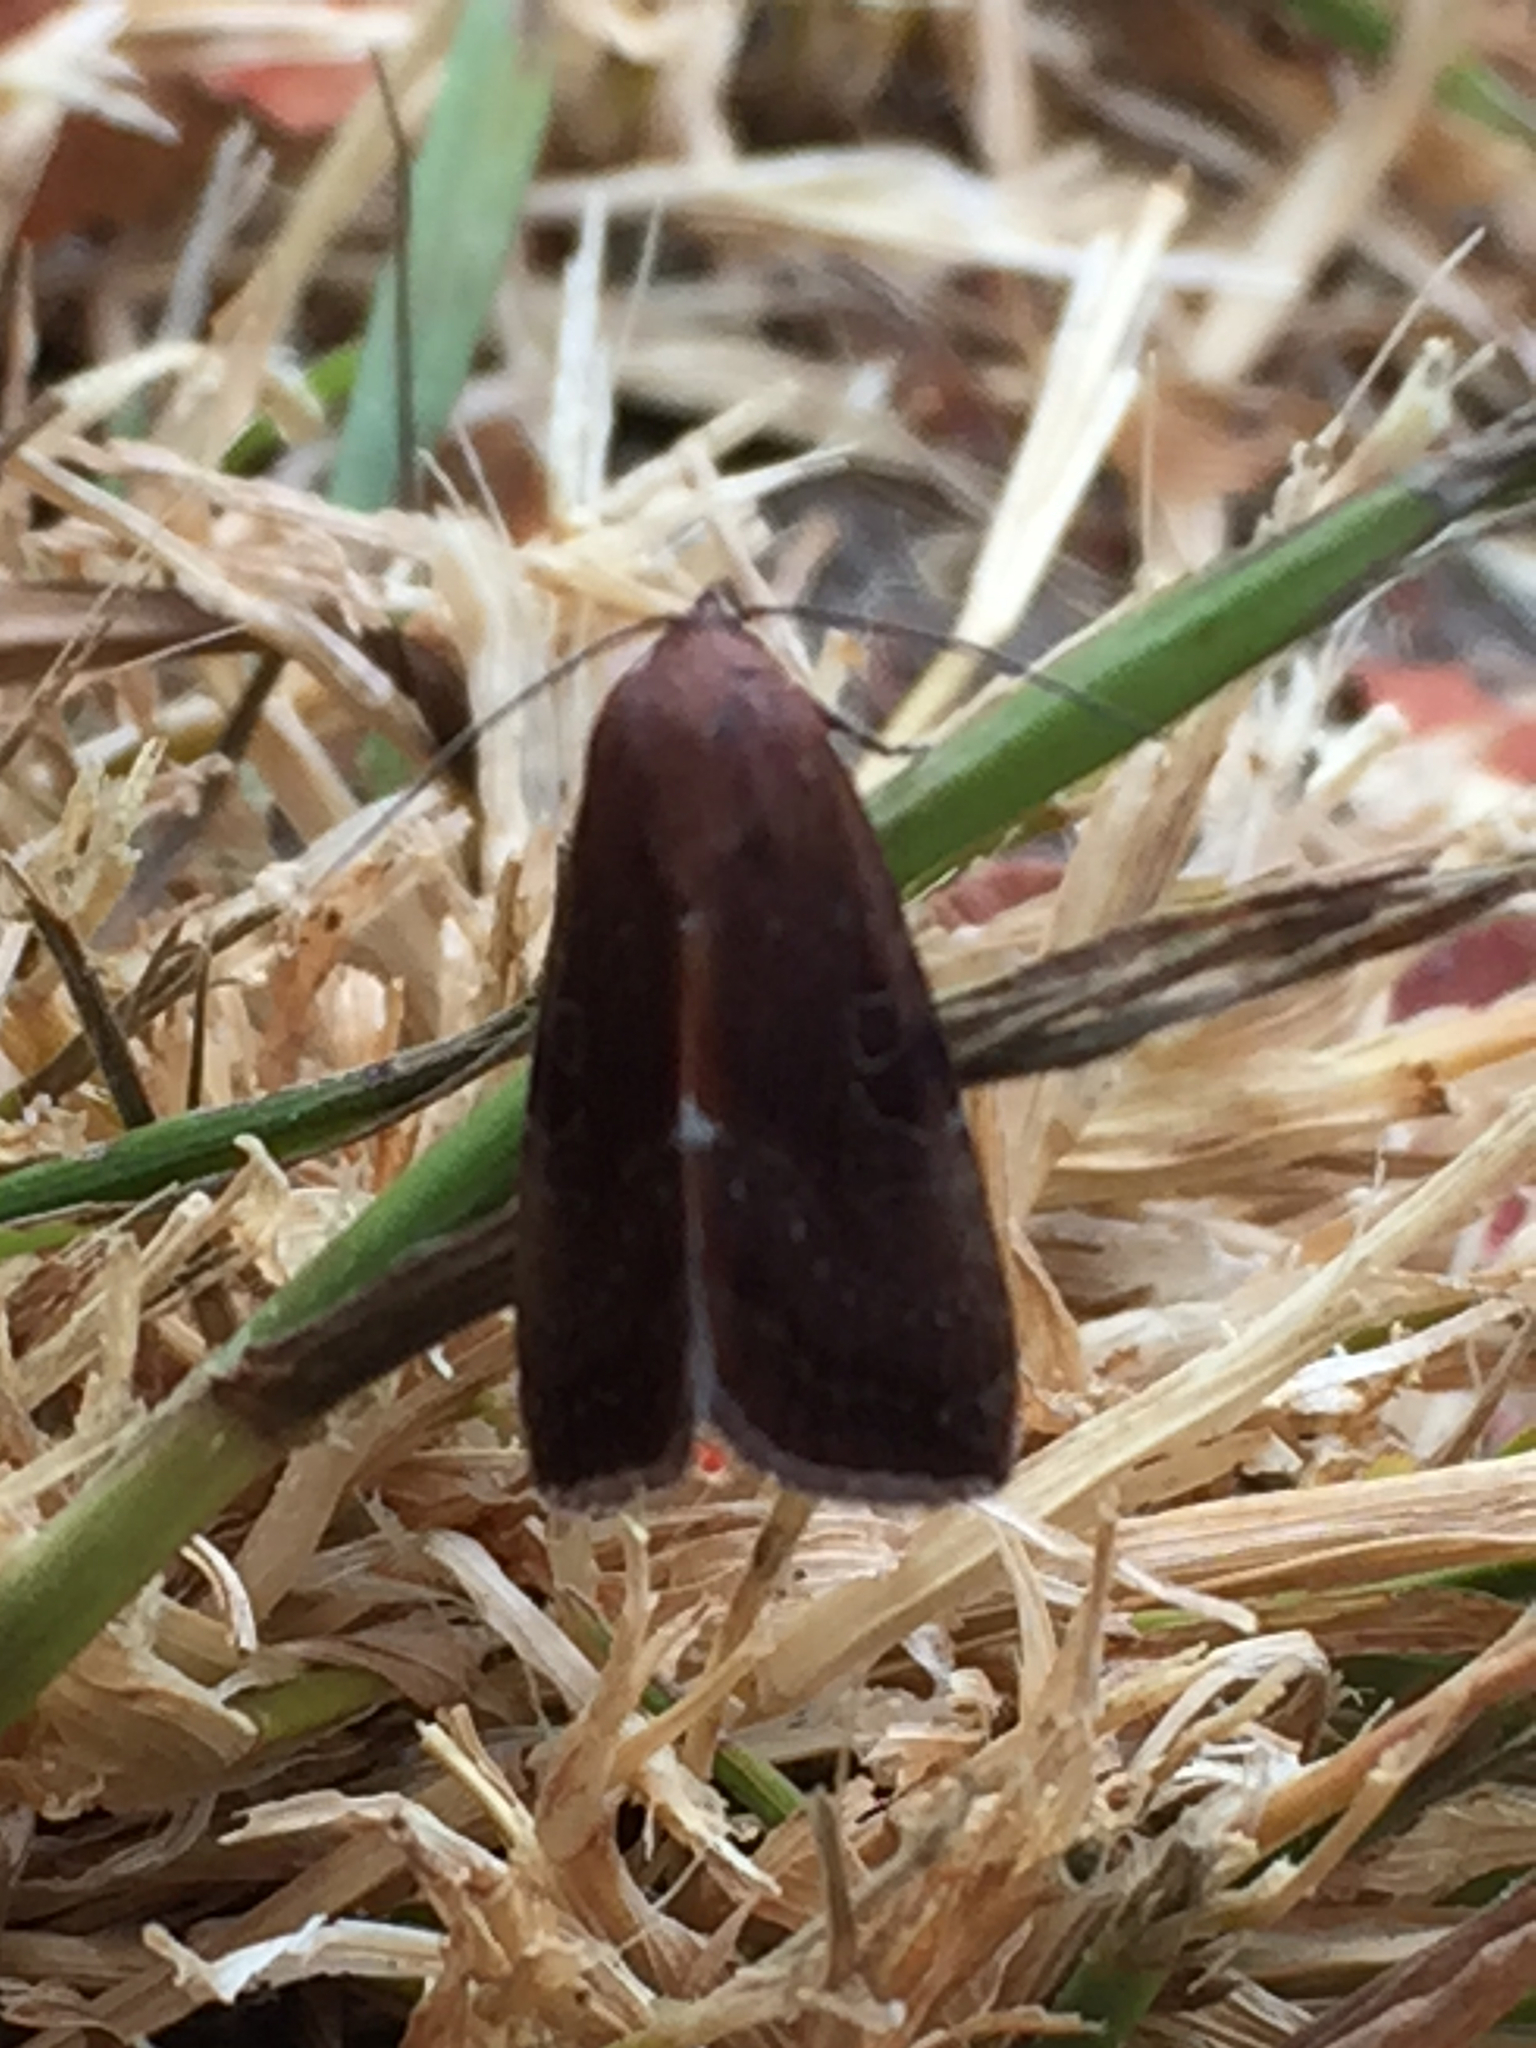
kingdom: Animalia
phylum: Arthropoda
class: Insecta
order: Lepidoptera
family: Noctuidae
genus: Galgula
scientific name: Galgula partita
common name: Wedgeling
